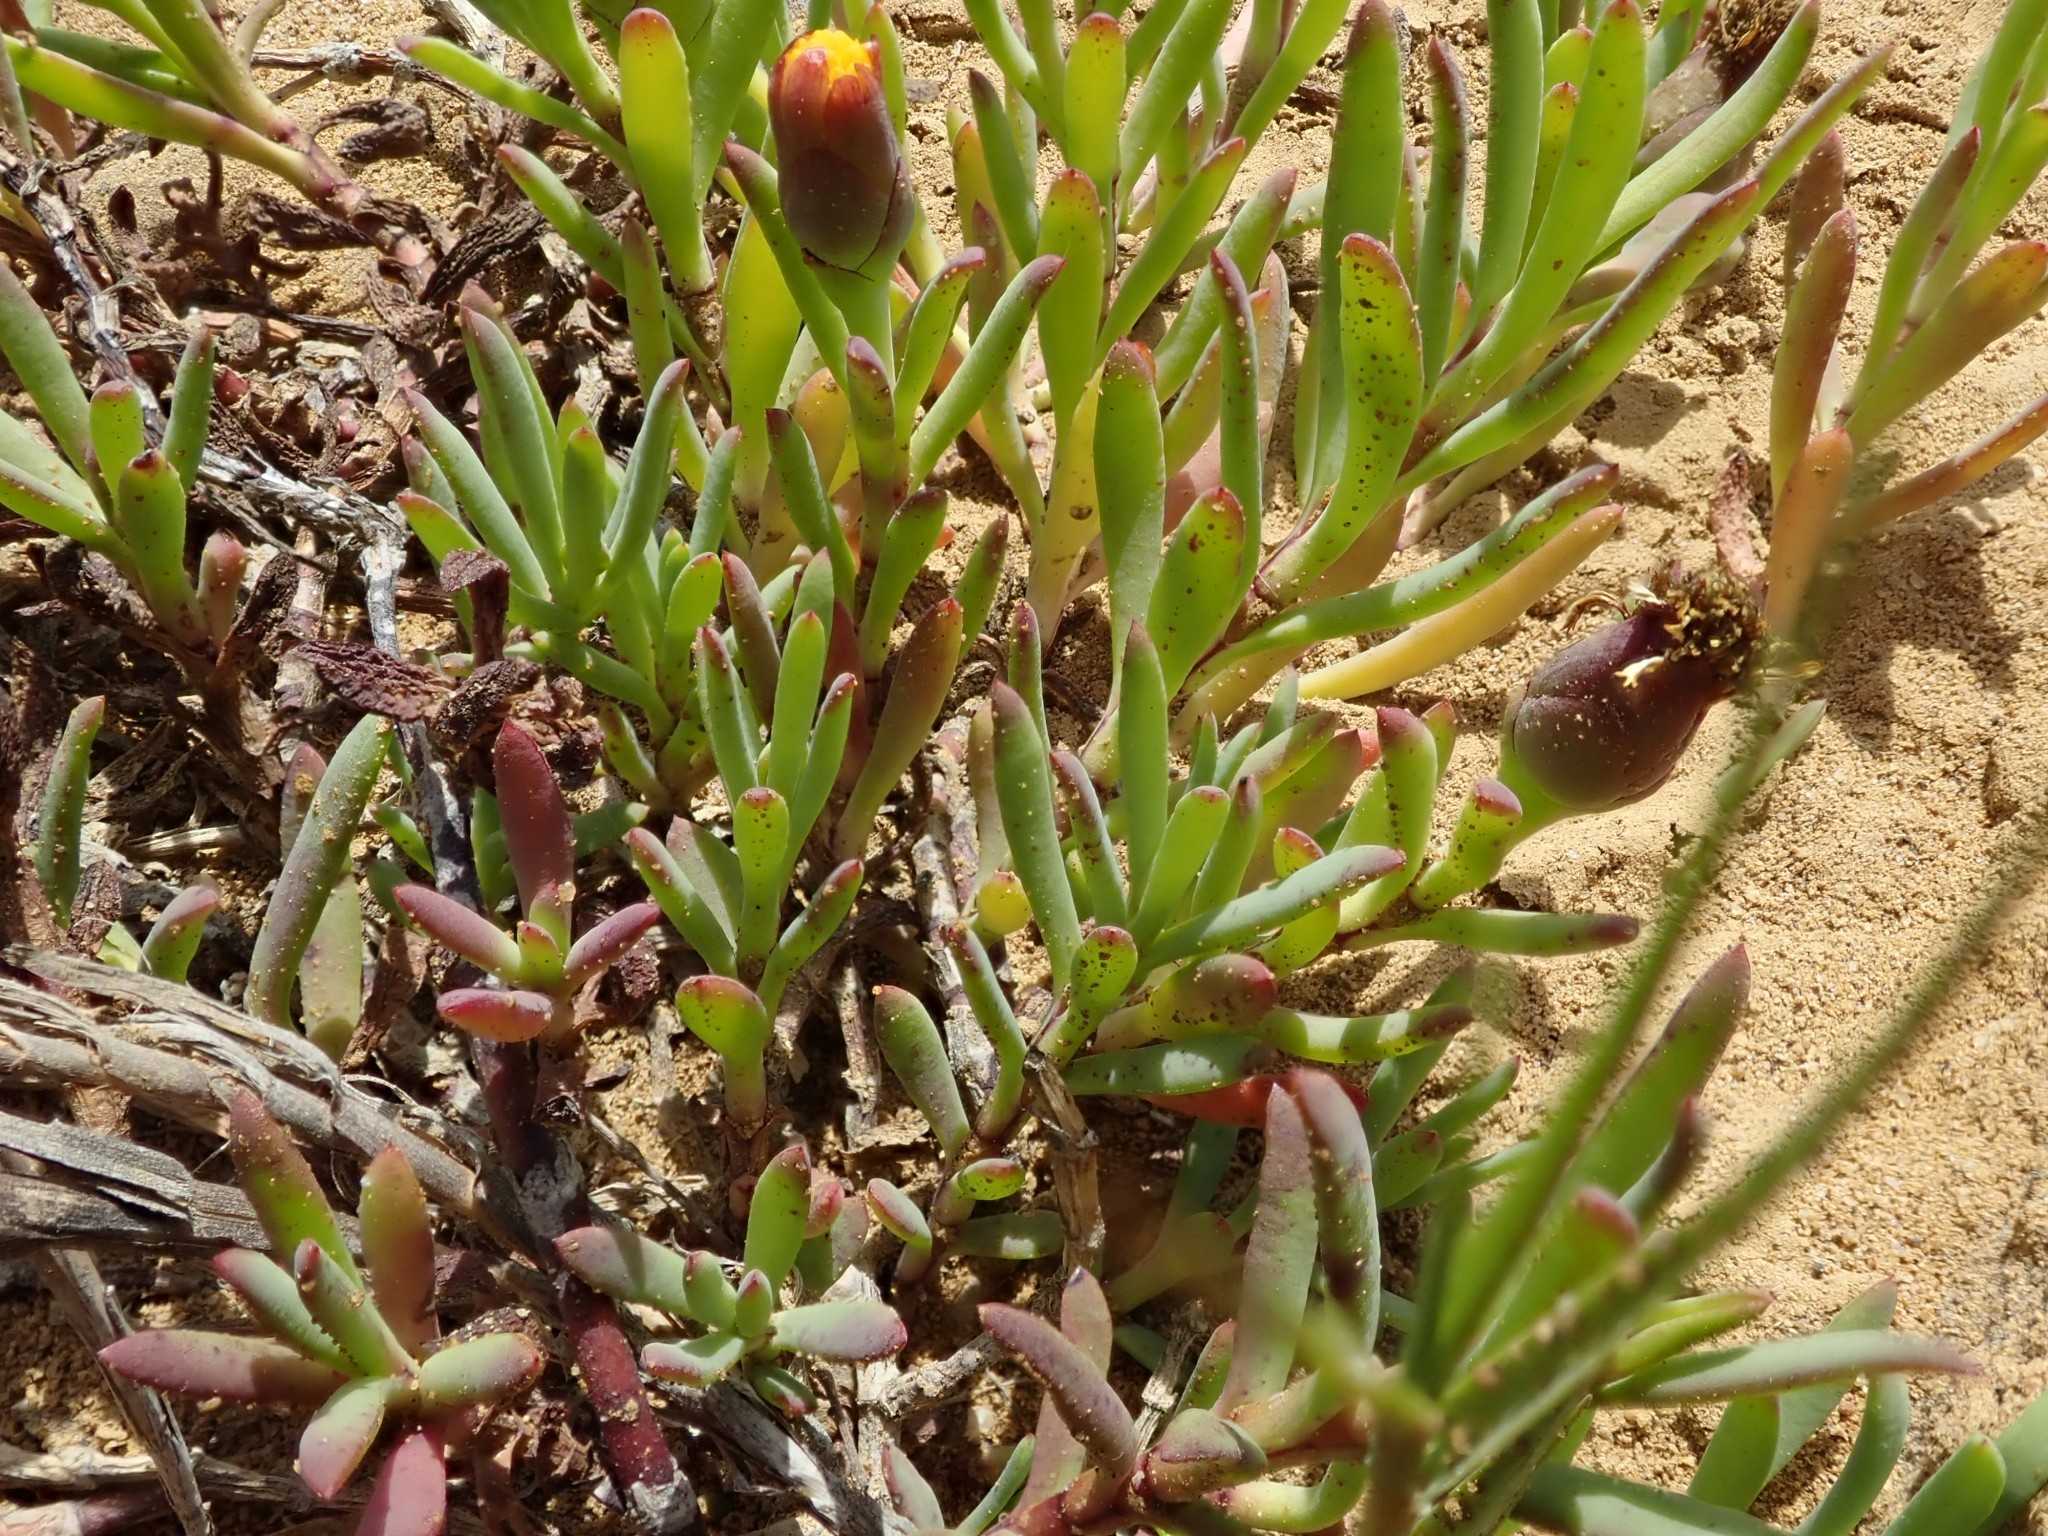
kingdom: Plantae
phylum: Tracheophyta
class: Magnoliopsida
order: Asterales
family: Asteraceae
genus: Jaumea
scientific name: Jaumea carnosa
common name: Fleshy jaumea
